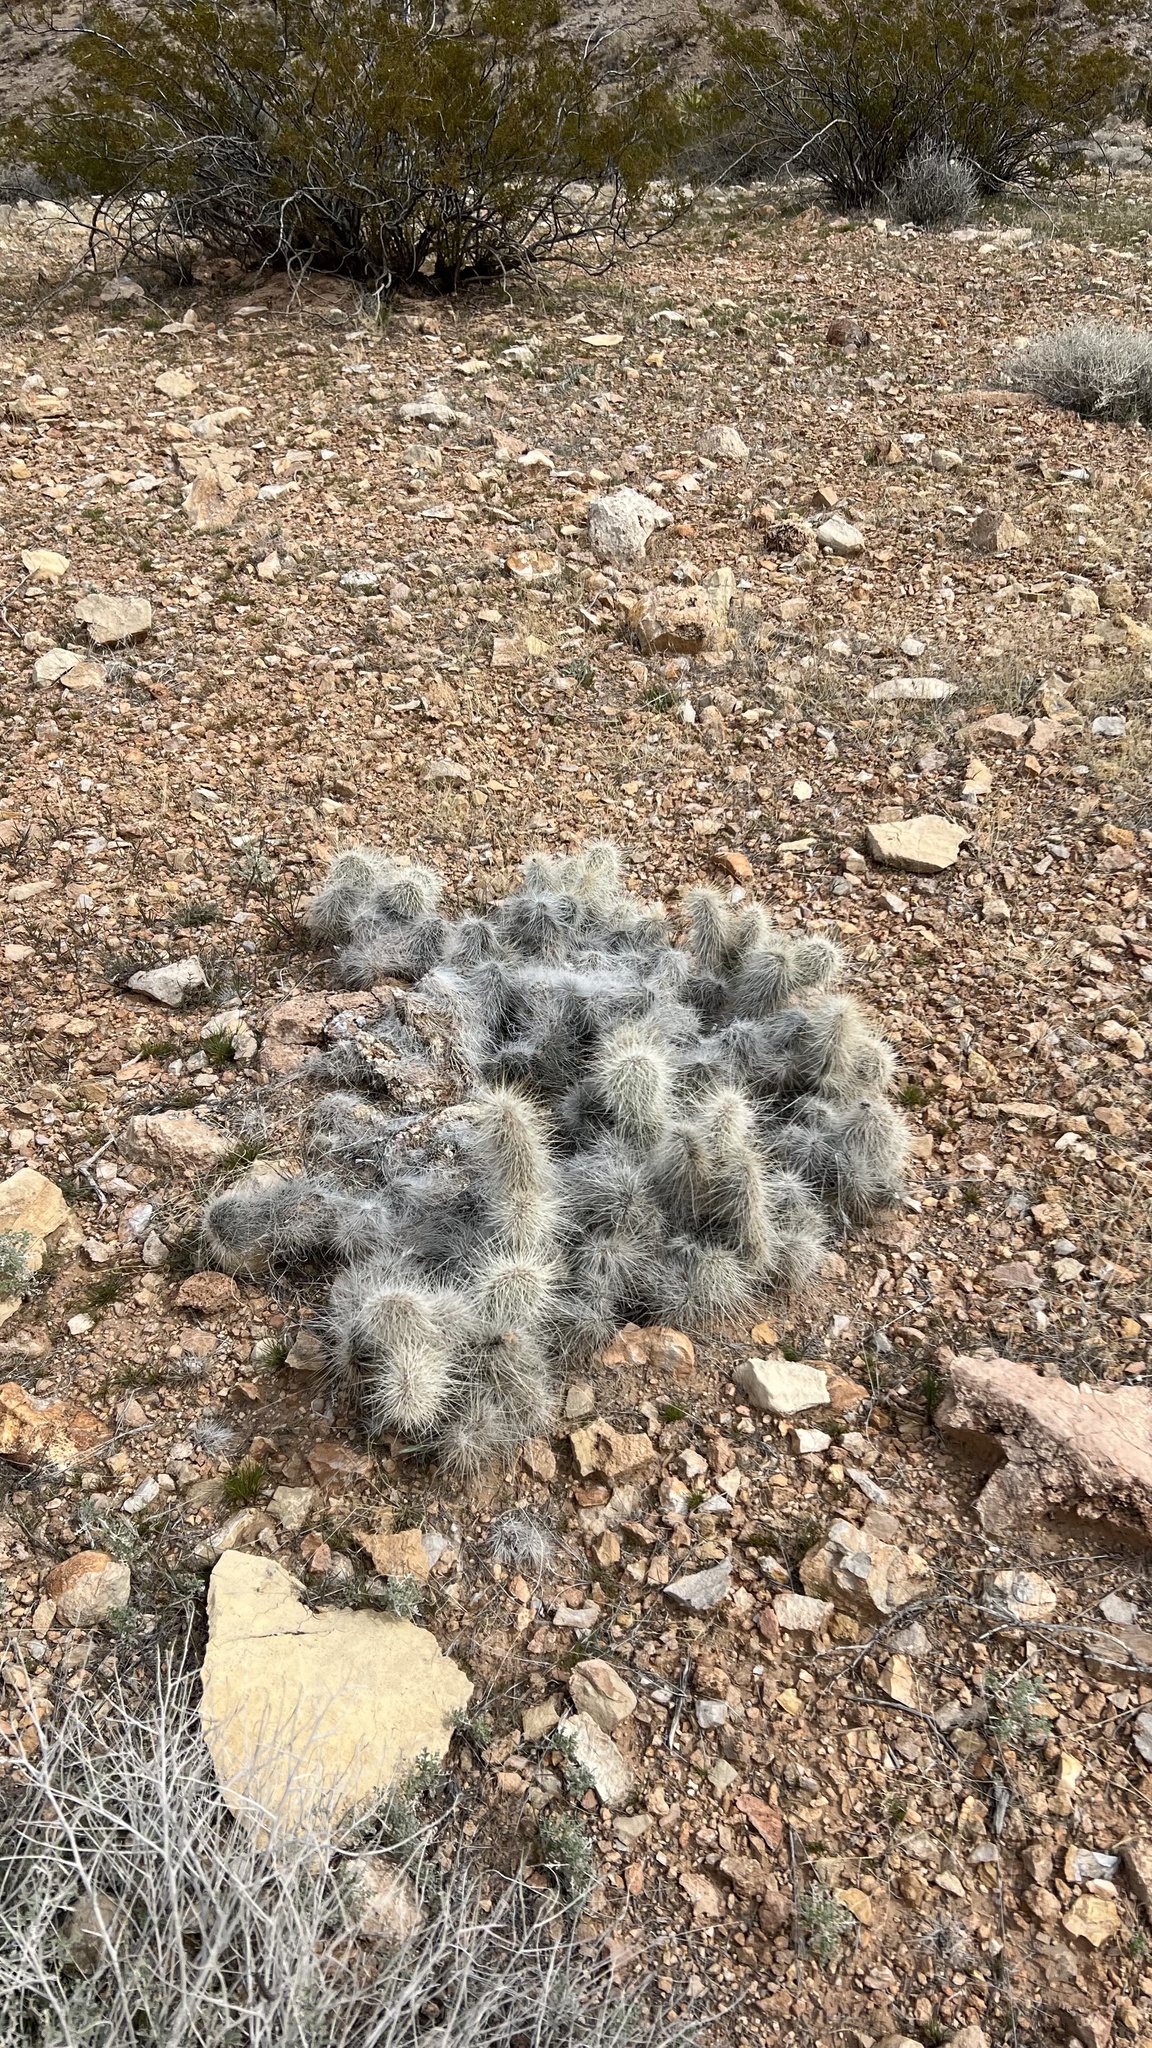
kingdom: Plantae
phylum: Tracheophyta
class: Magnoliopsida
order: Caryophyllales
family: Cactaceae
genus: Opuntia
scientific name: Opuntia polyacantha
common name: Plains prickly-pear
